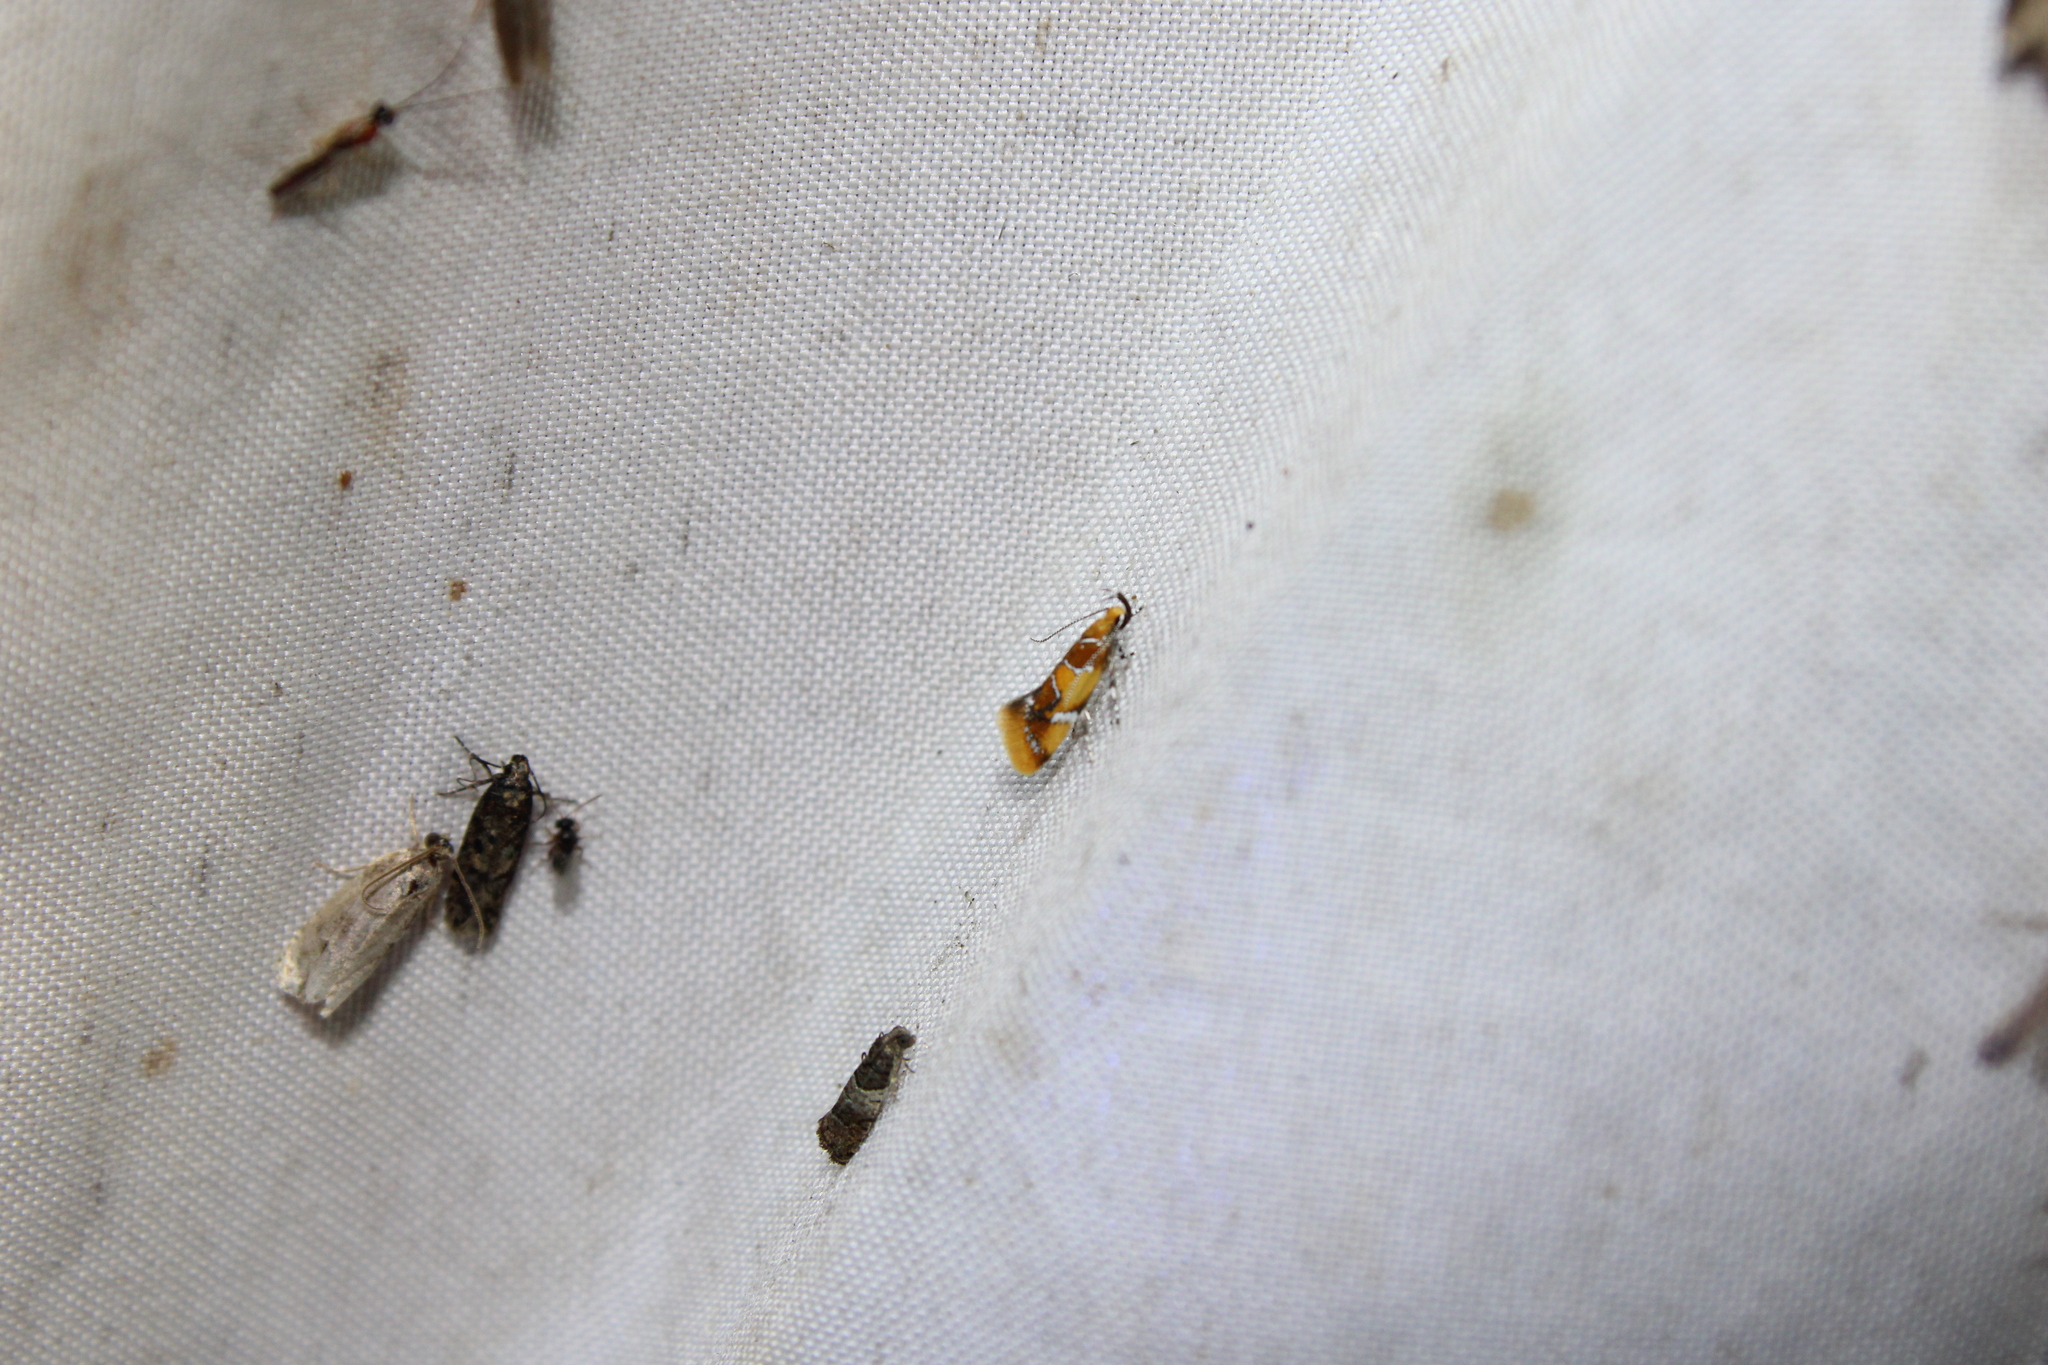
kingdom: Animalia
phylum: Arthropoda
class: Insecta
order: Lepidoptera
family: Oecophoridae
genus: Callima
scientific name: Callima argenticinctella
